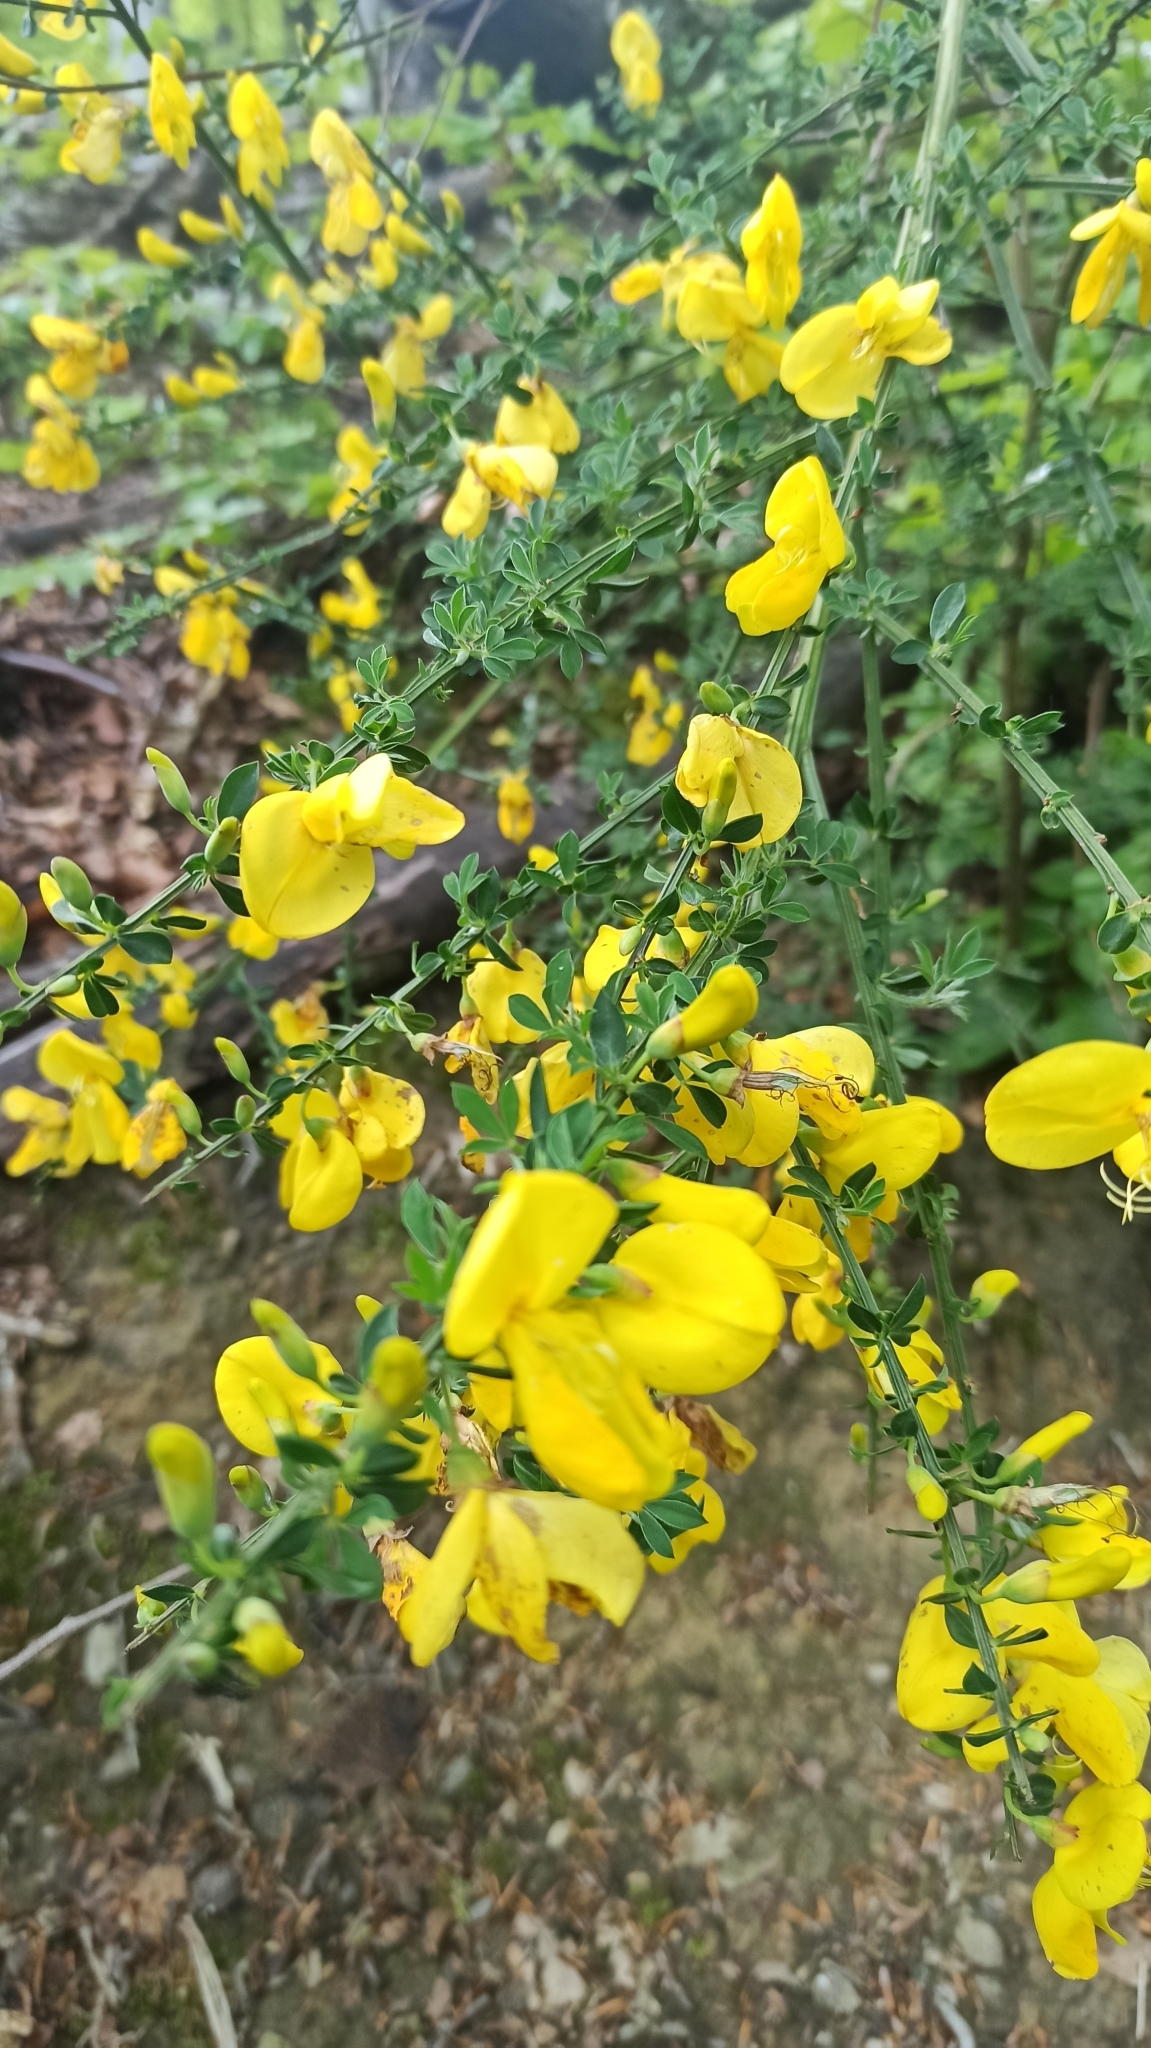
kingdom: Plantae
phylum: Tracheophyta
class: Magnoliopsida
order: Fabales
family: Fabaceae
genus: Cytisus
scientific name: Cytisus scoparius
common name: Scotch broom
